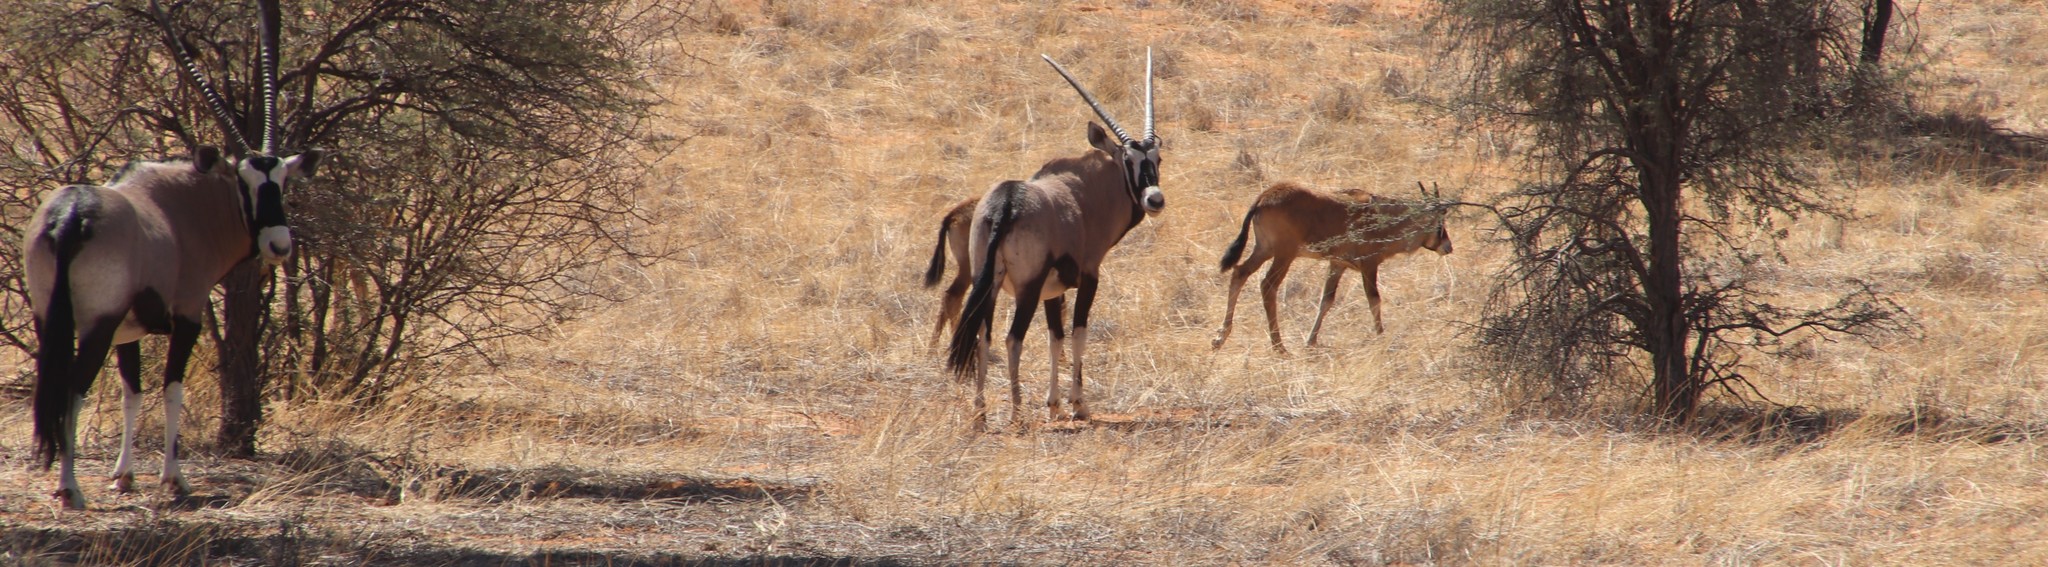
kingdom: Animalia
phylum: Chordata
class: Mammalia
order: Artiodactyla
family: Bovidae
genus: Oryx
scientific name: Oryx gazella
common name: Gemsbok
